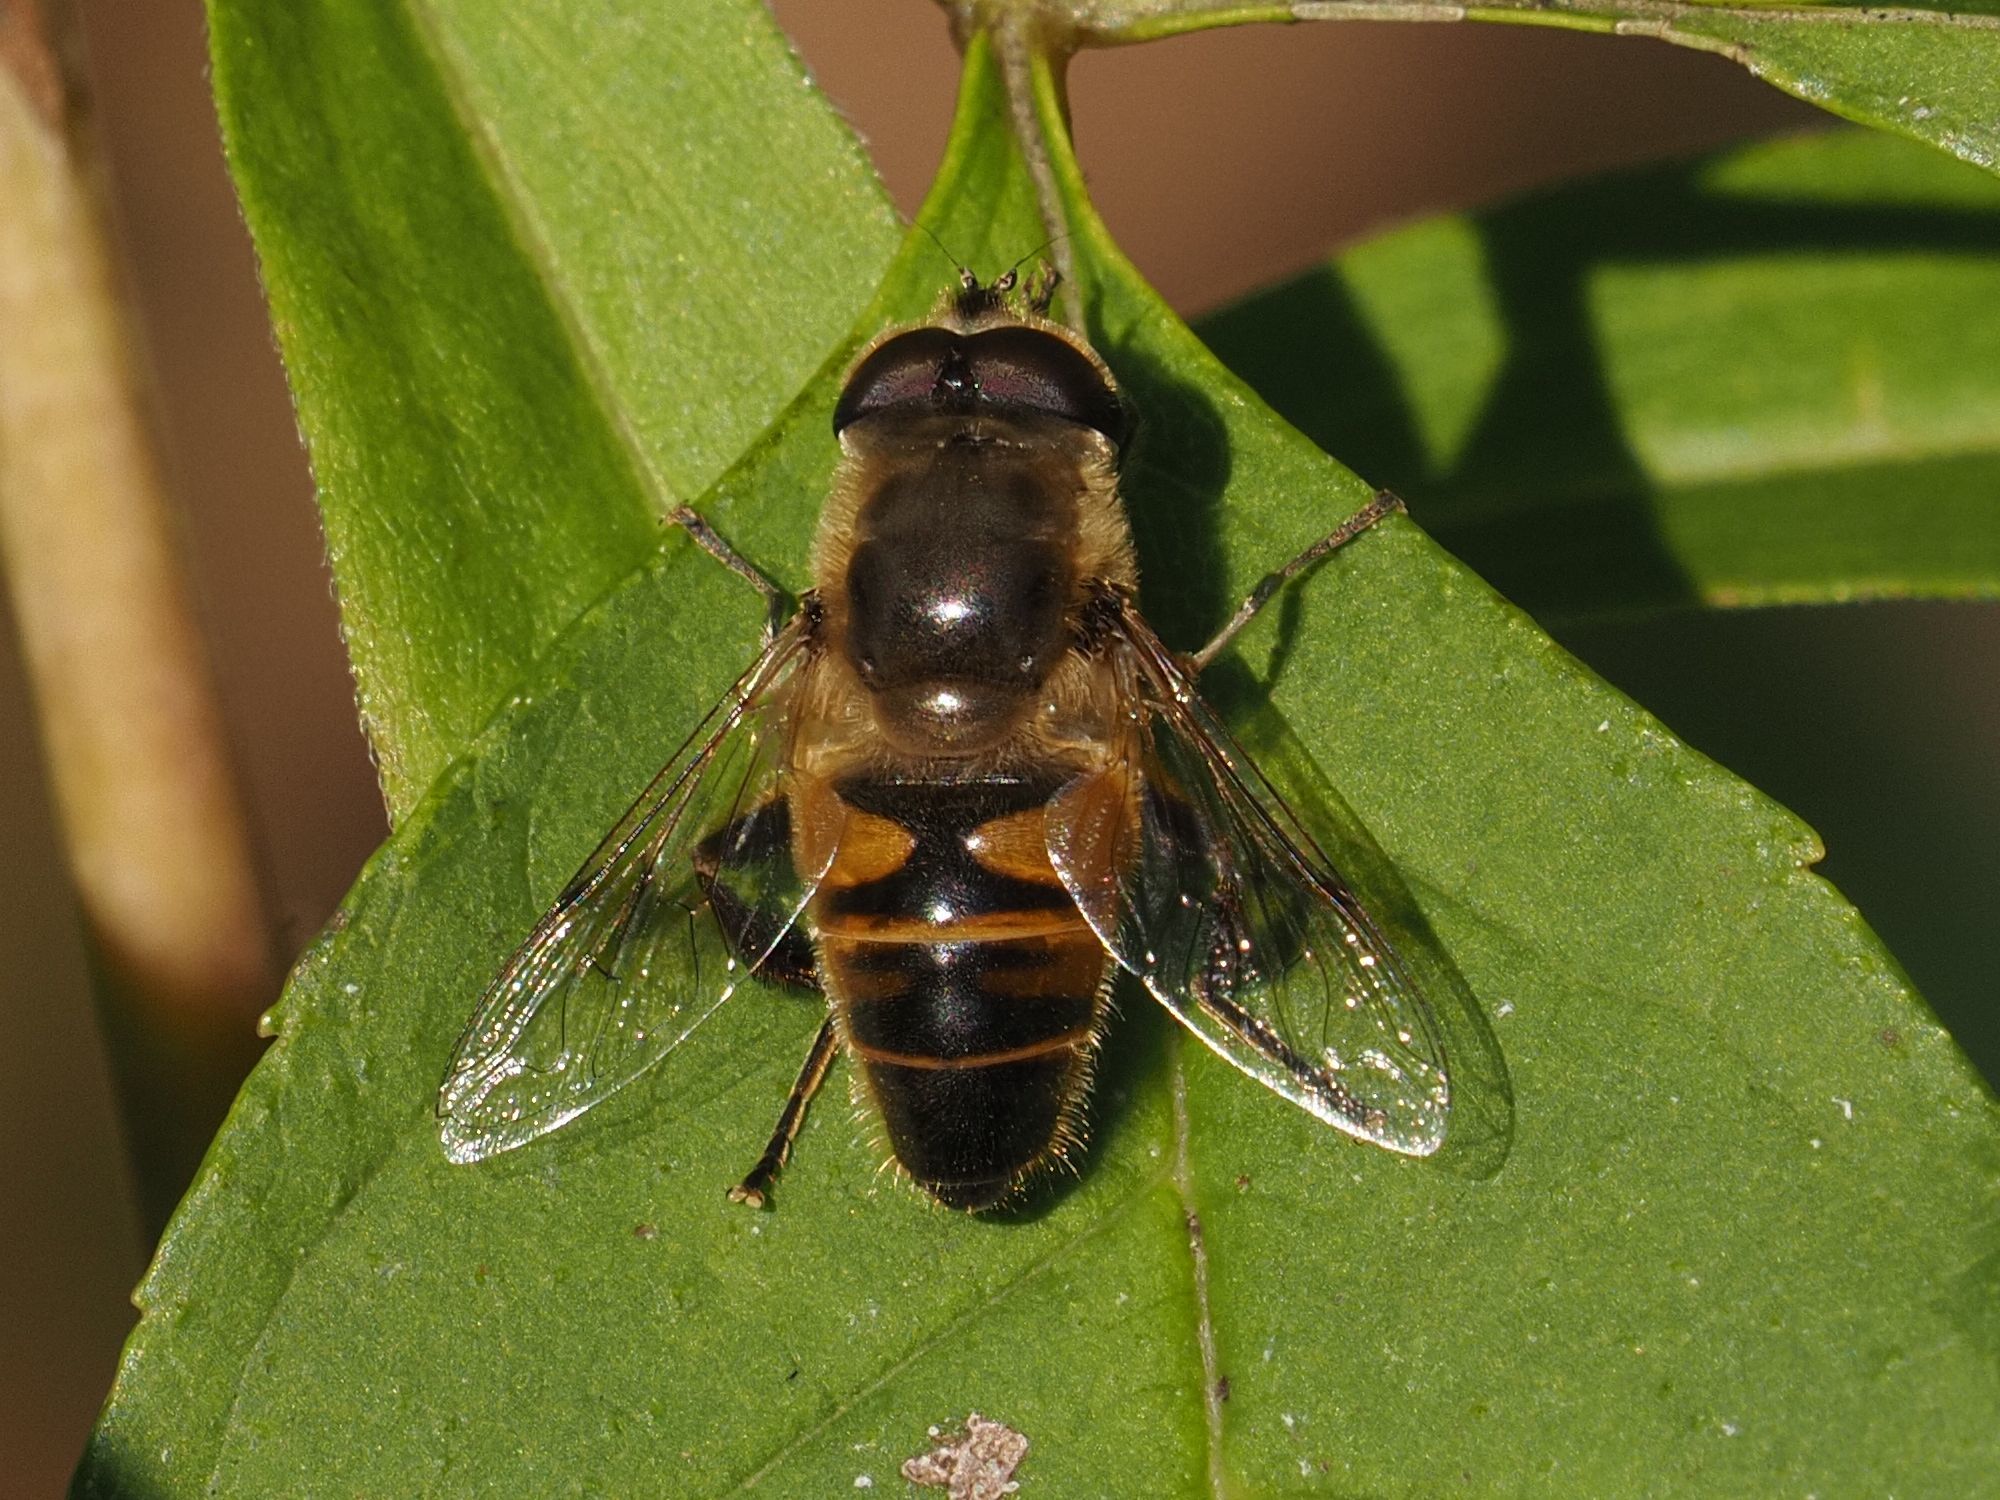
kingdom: Animalia
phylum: Arthropoda
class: Insecta
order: Diptera
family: Syrphidae
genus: Eristalis
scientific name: Eristalis tenax
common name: Drone fly
